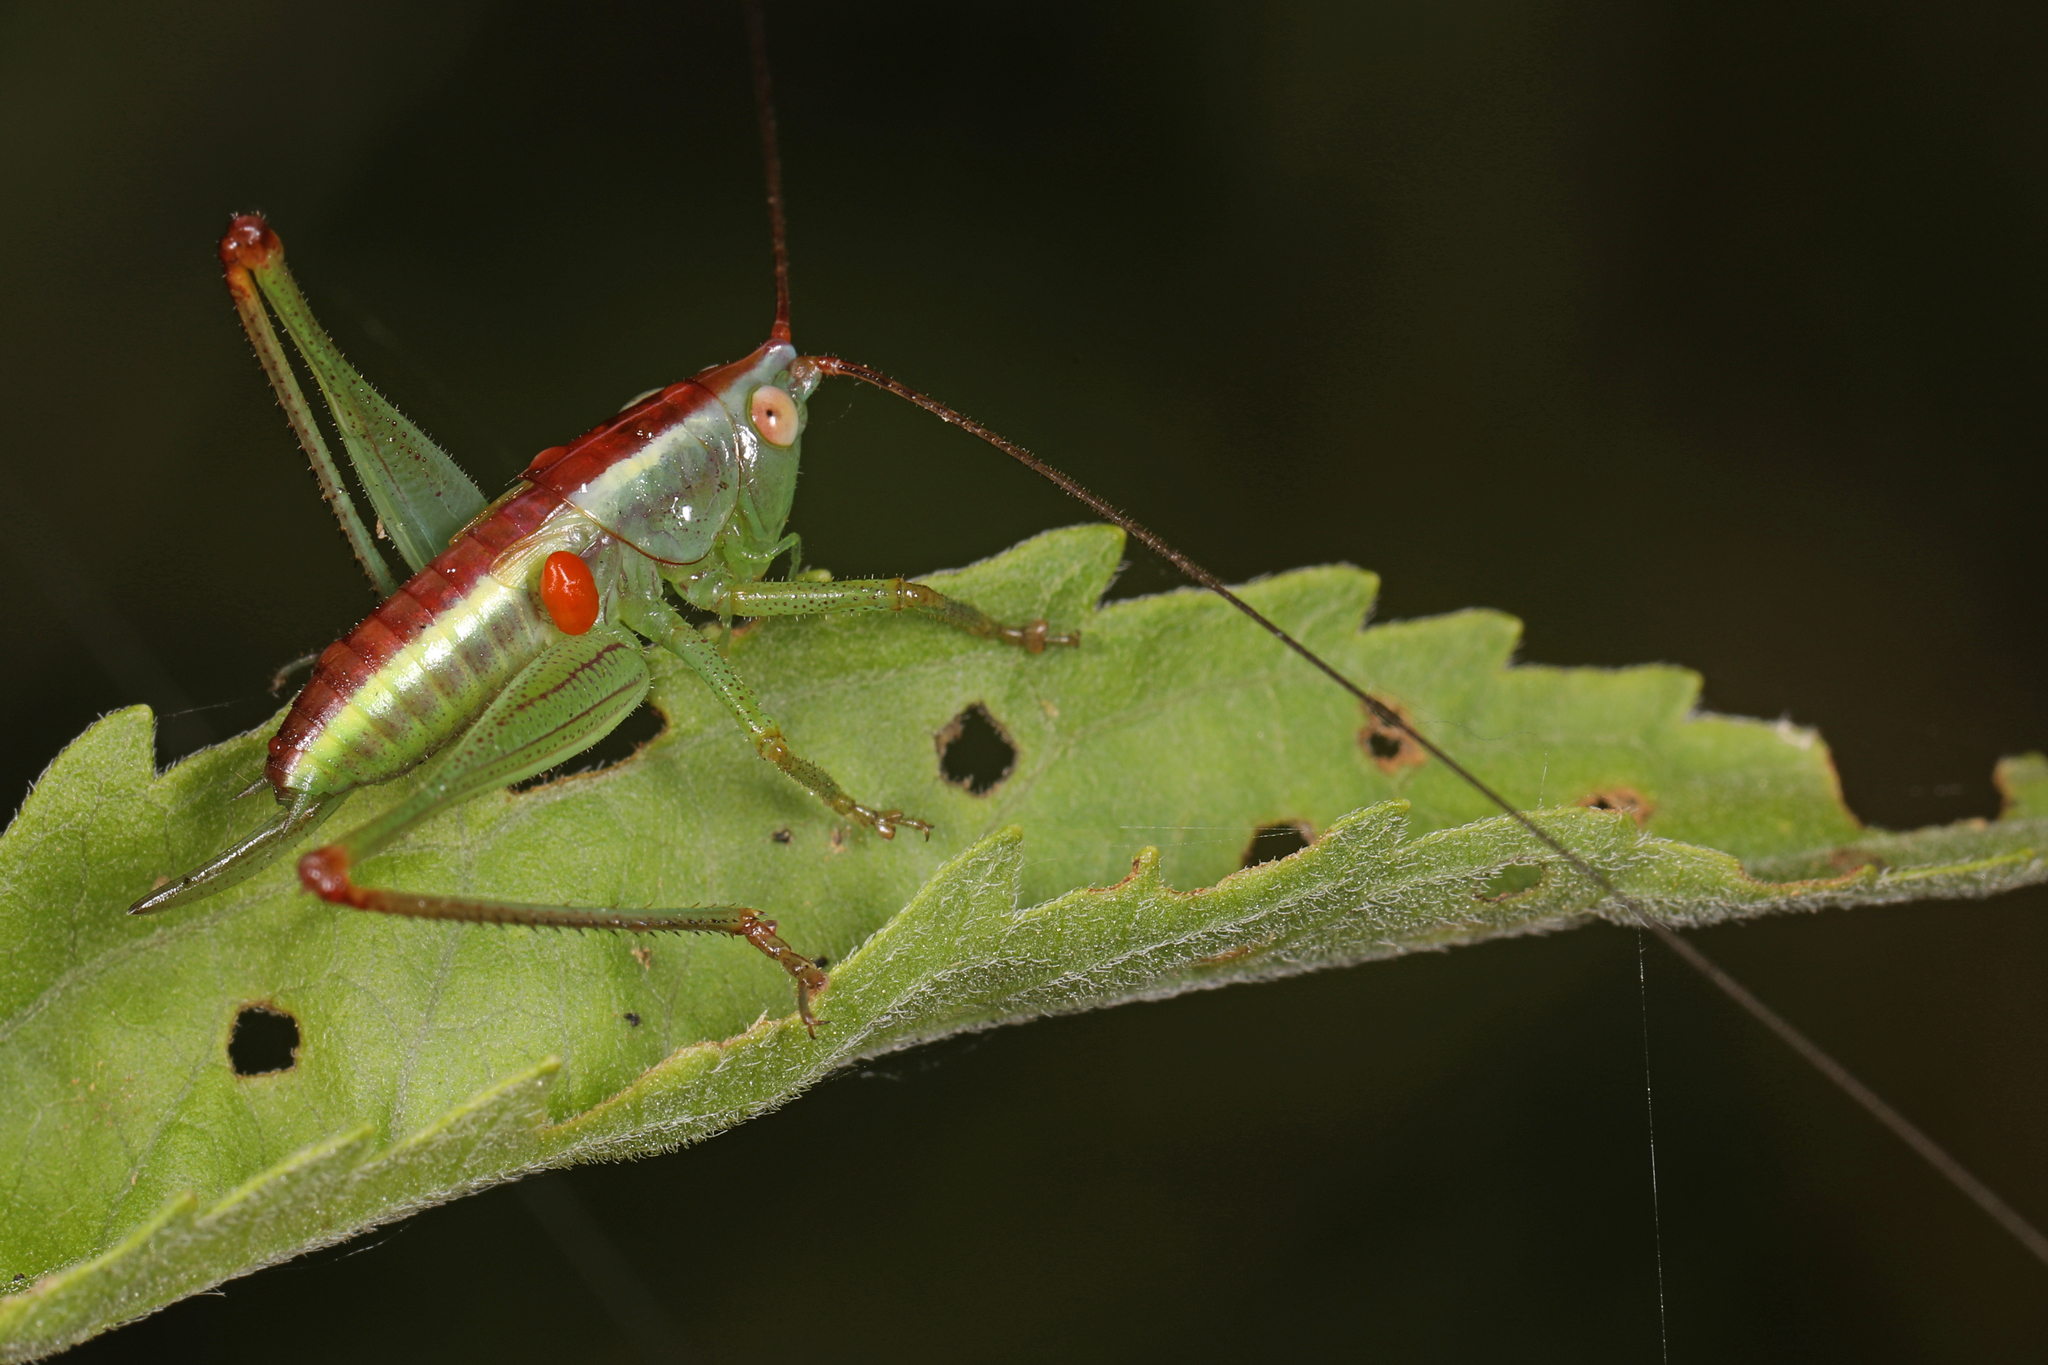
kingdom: Animalia
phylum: Arthropoda
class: Insecta
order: Orthoptera
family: Tettigoniidae
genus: Orchelimum
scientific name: Orchelimum minor
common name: Lesser pine meadow katydid
